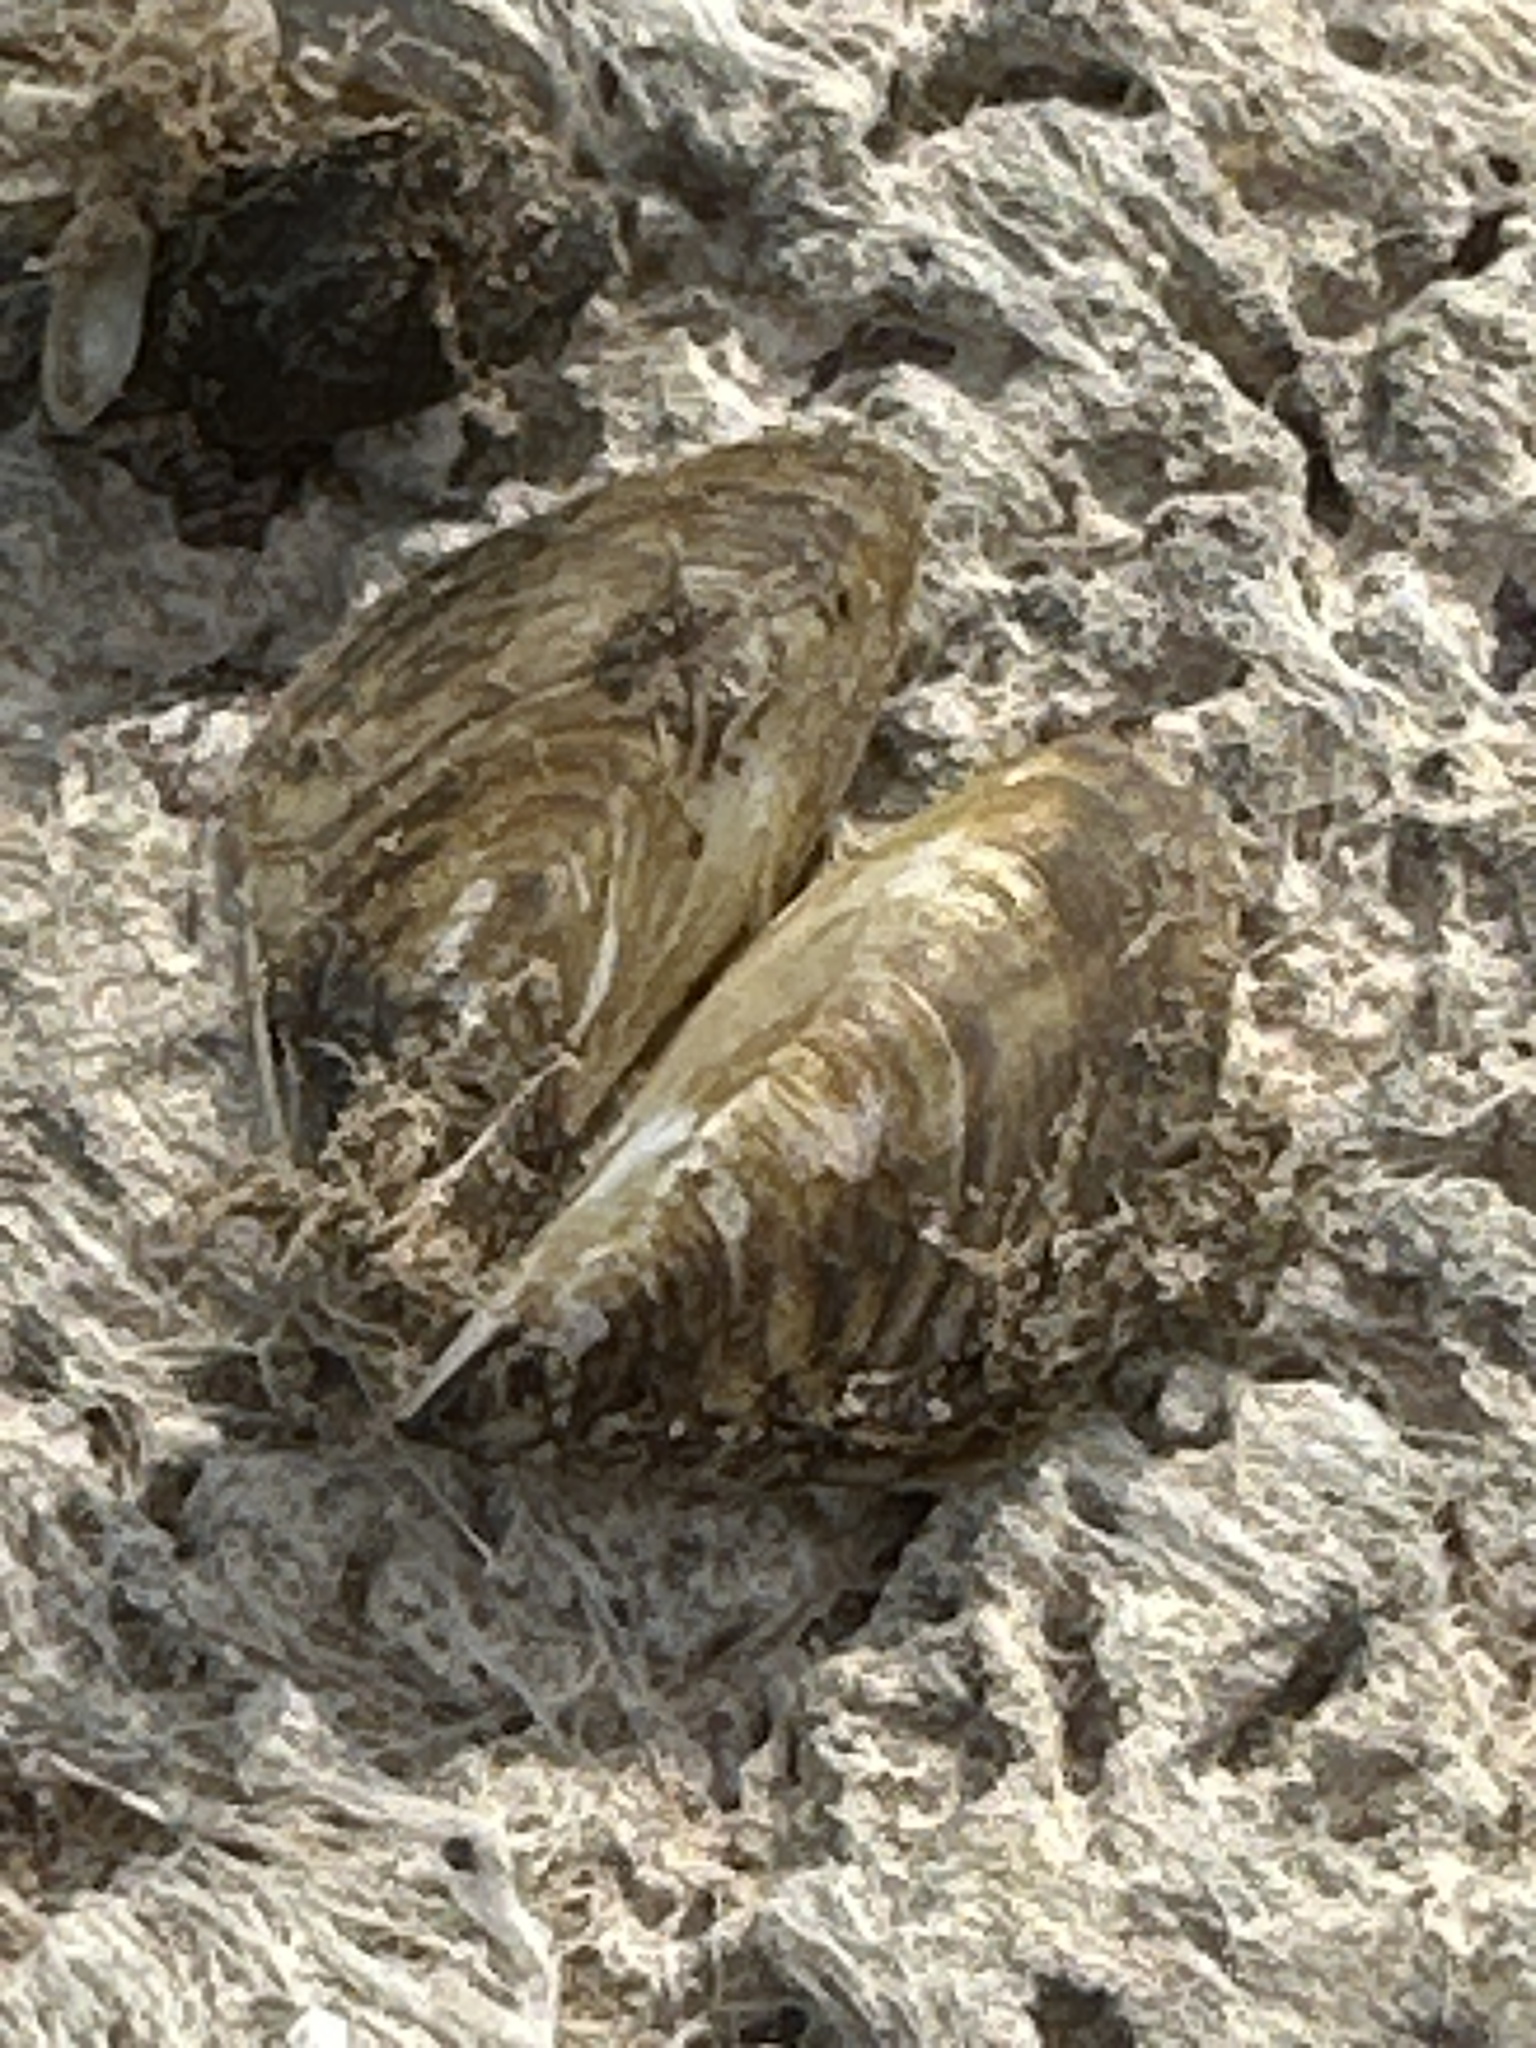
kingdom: Animalia
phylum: Mollusca
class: Bivalvia
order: Myida
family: Dreissenidae
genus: Dreissena
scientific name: Dreissena polymorpha
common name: Zebra mussel
